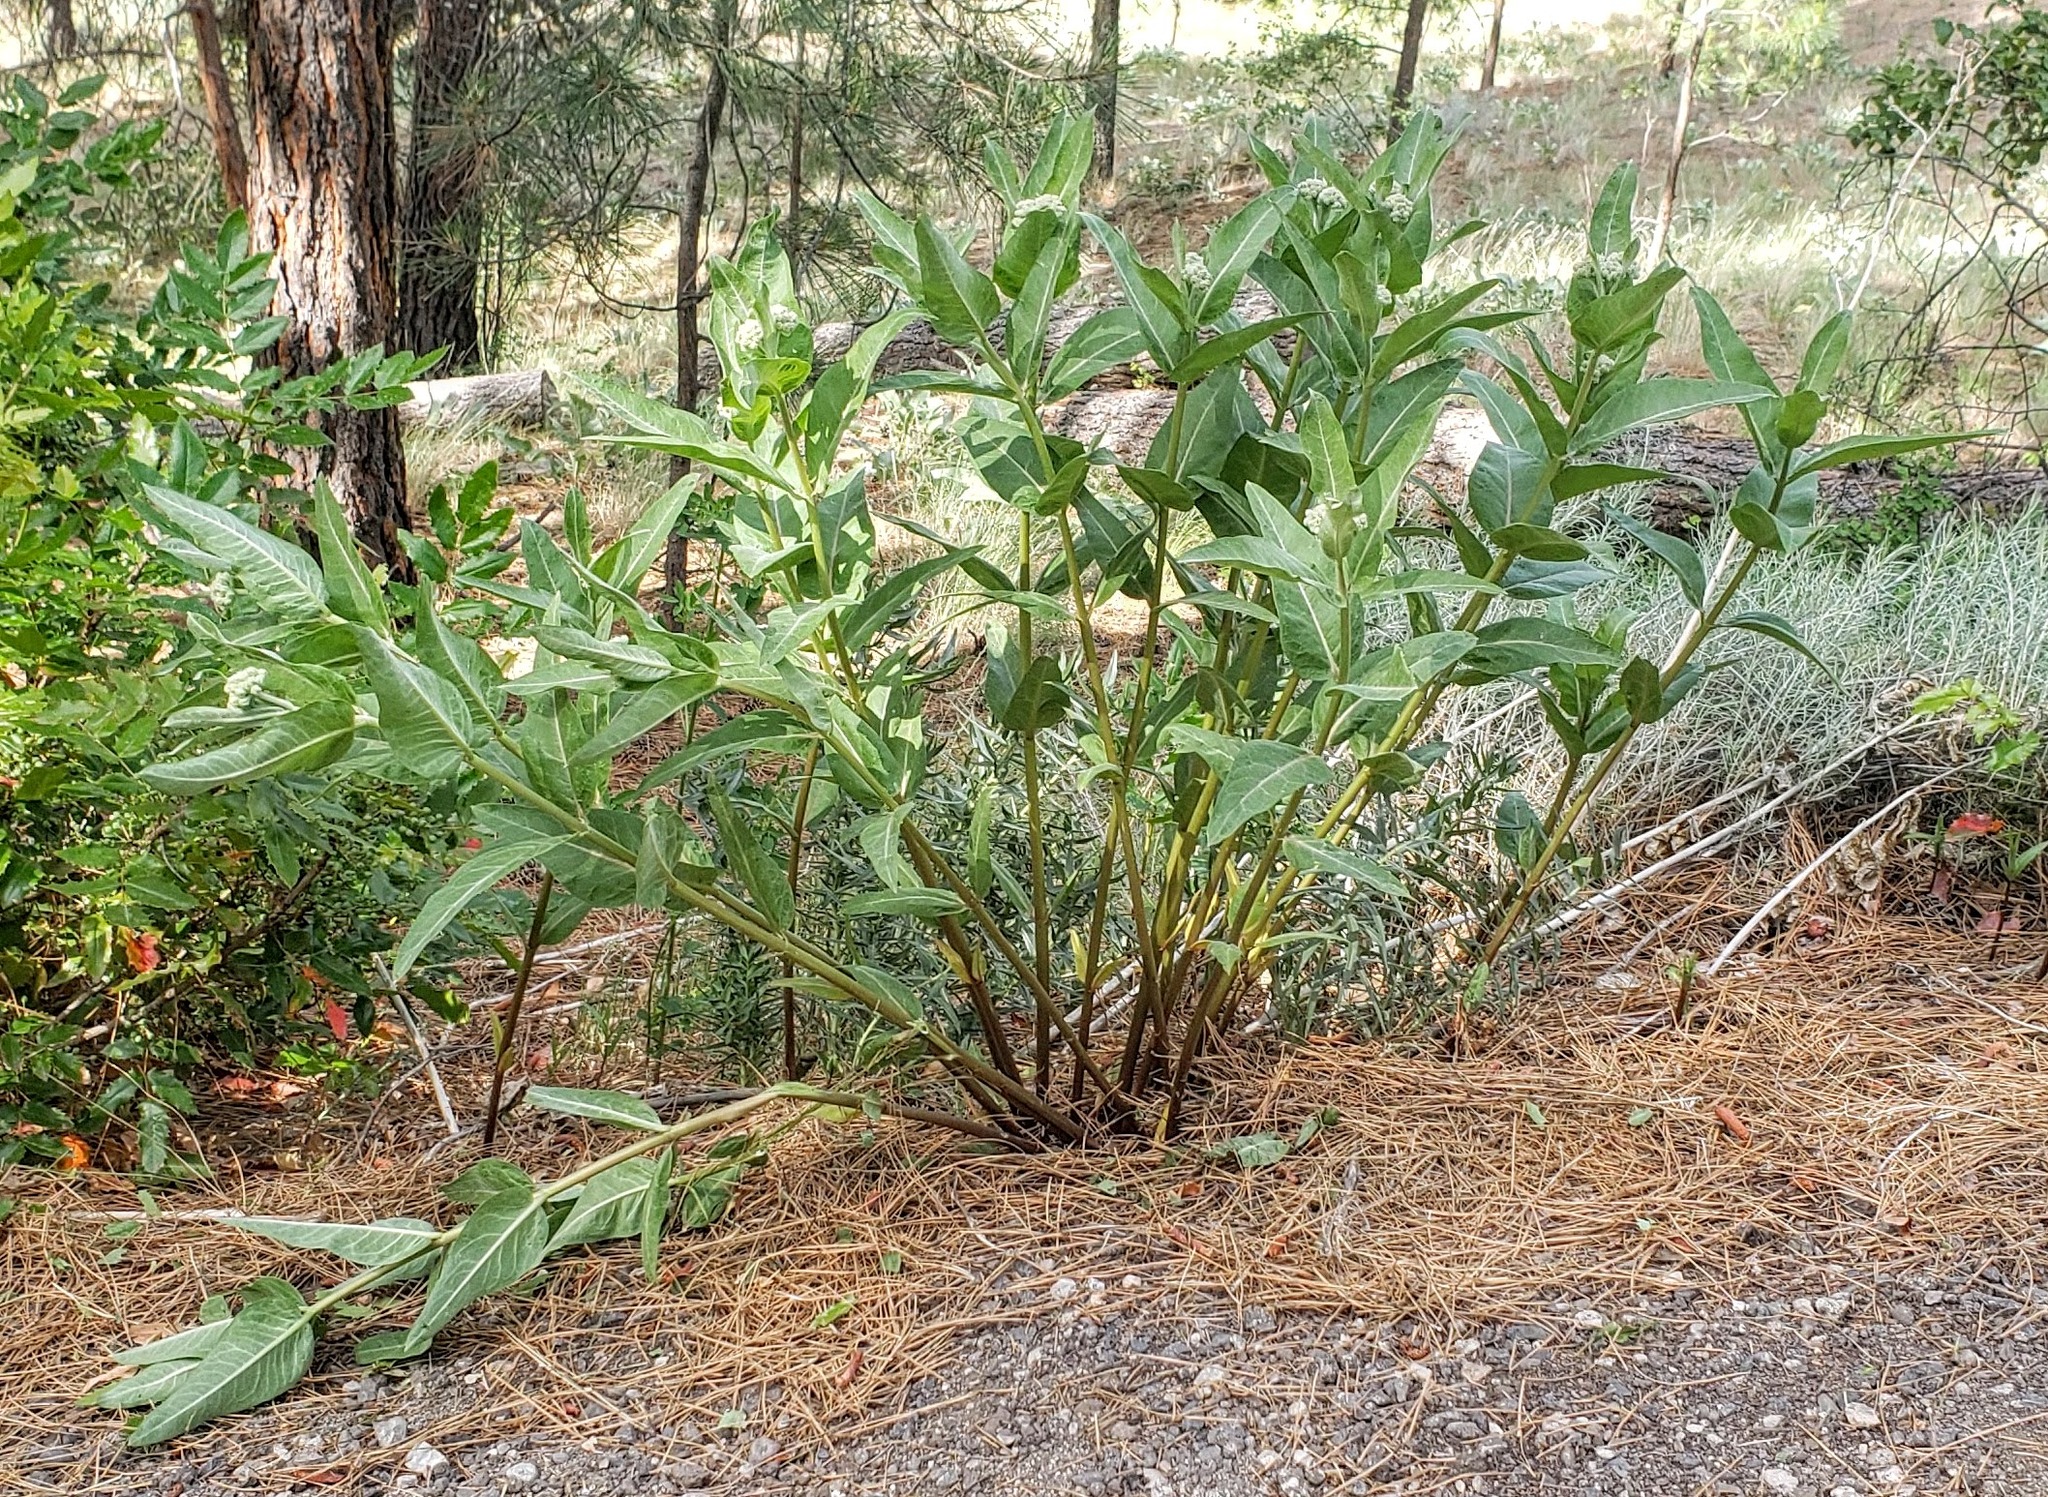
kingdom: Plantae
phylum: Tracheophyta
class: Magnoliopsida
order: Gentianales
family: Apocynaceae
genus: Asclepias
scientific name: Asclepias speciosa
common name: Showy milkweed
